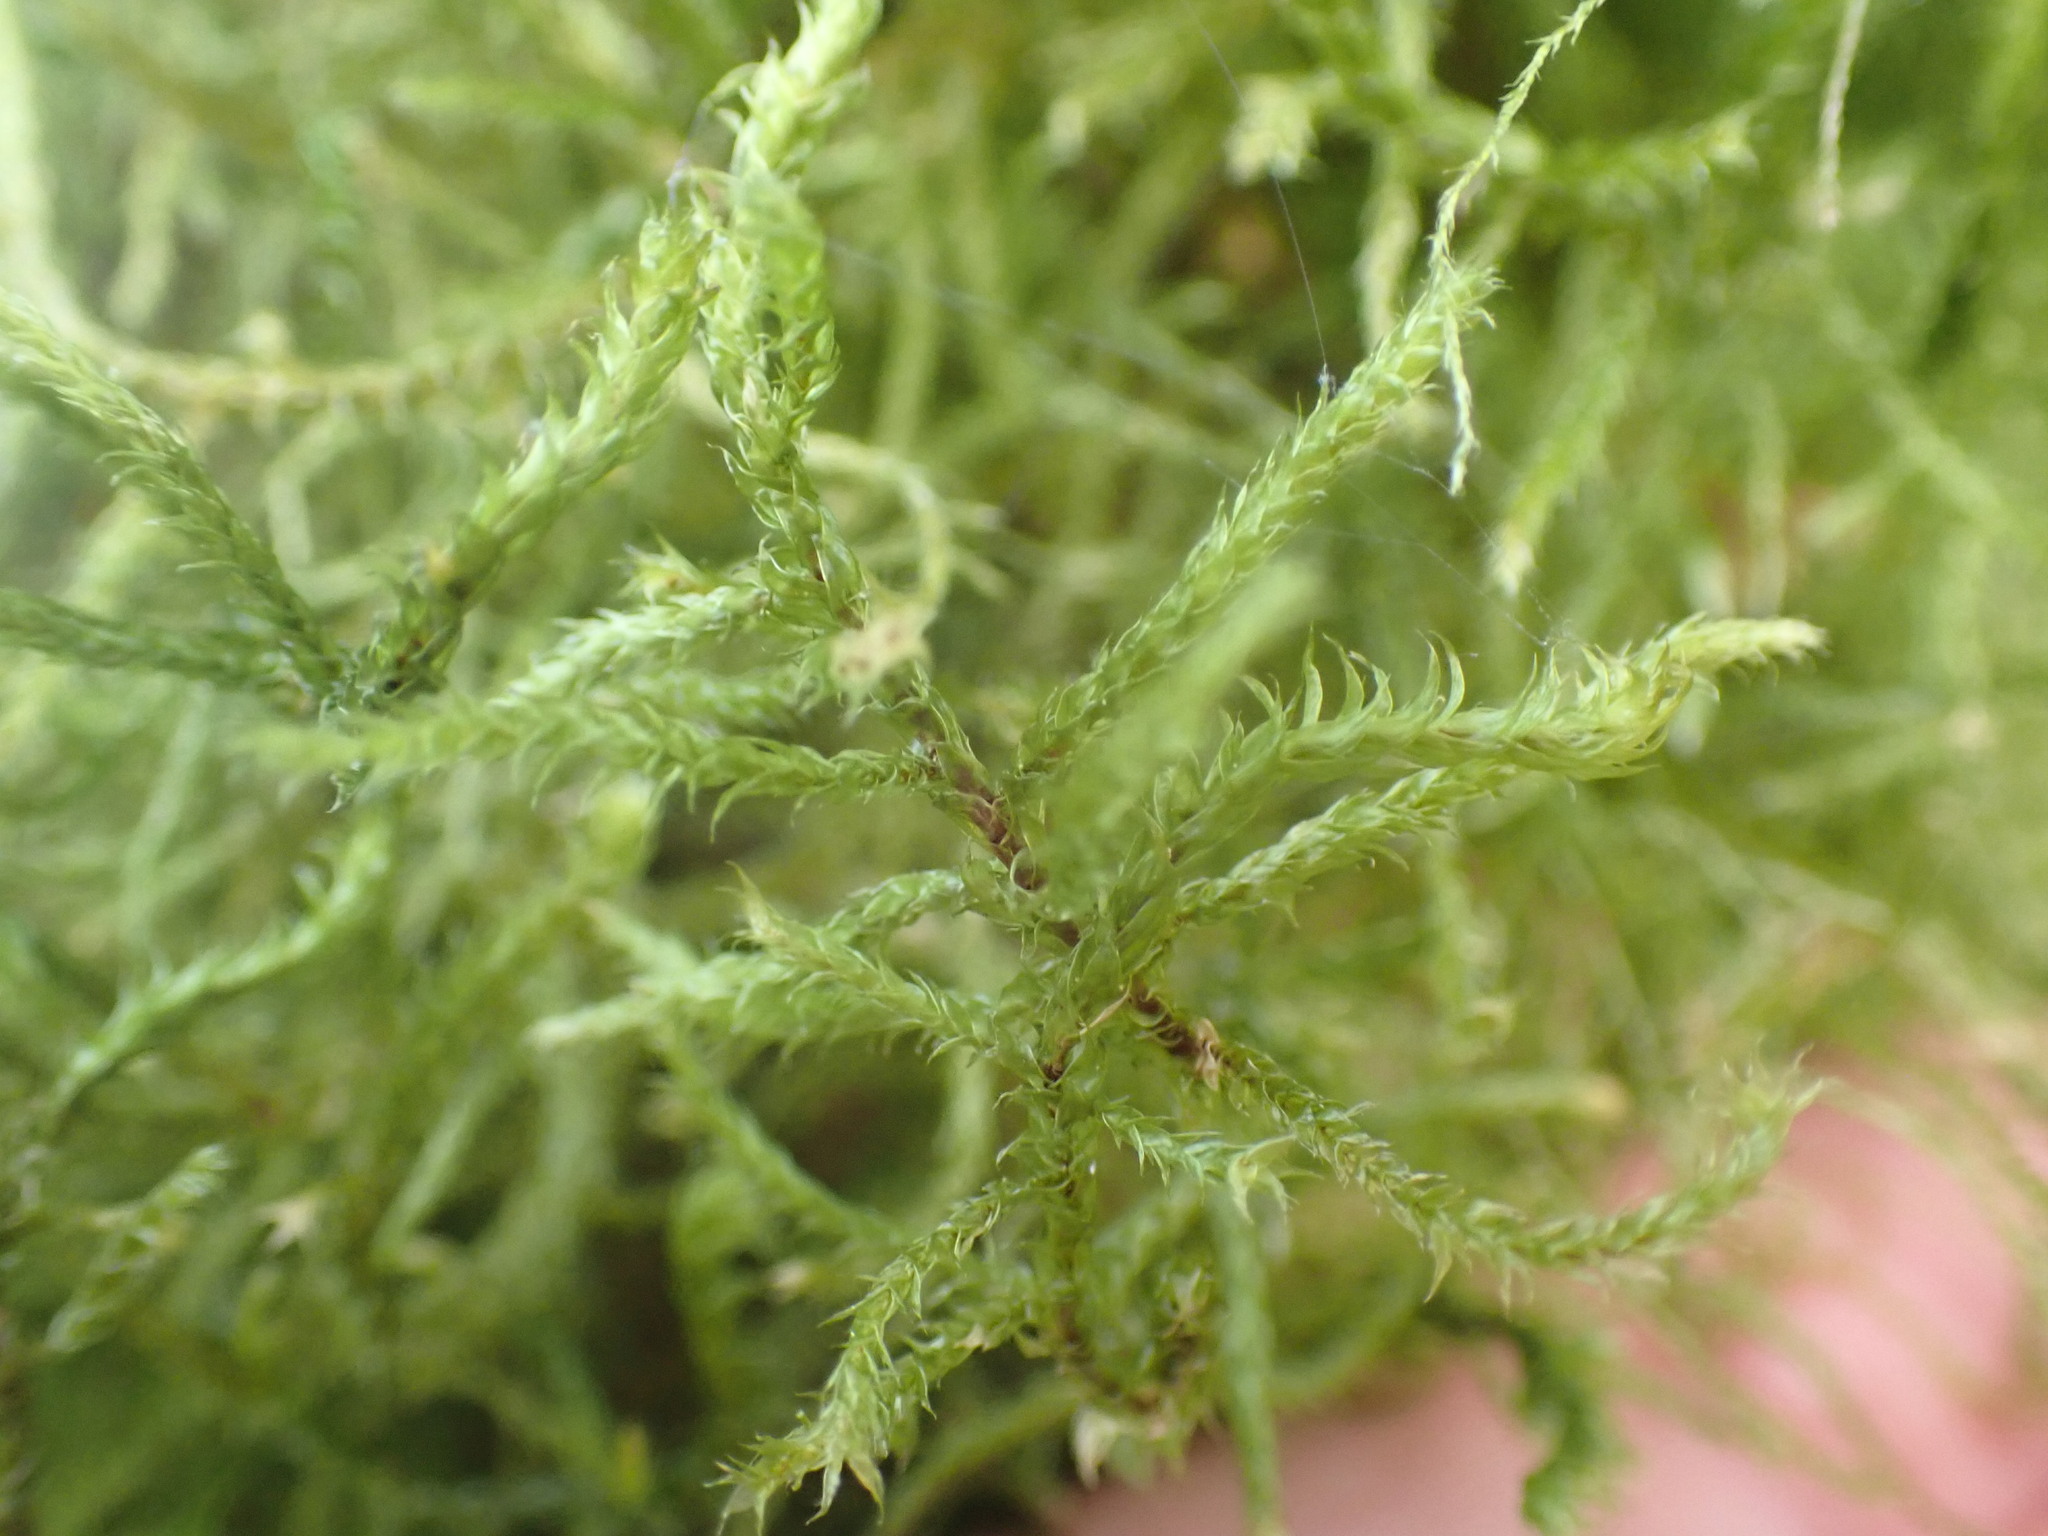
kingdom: Plantae
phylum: Bryophyta
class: Bryopsida
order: Hypnales
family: Antitrichiaceae
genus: Antitrichia
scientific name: Antitrichia curtipendula
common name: Pendulous wing-moss
